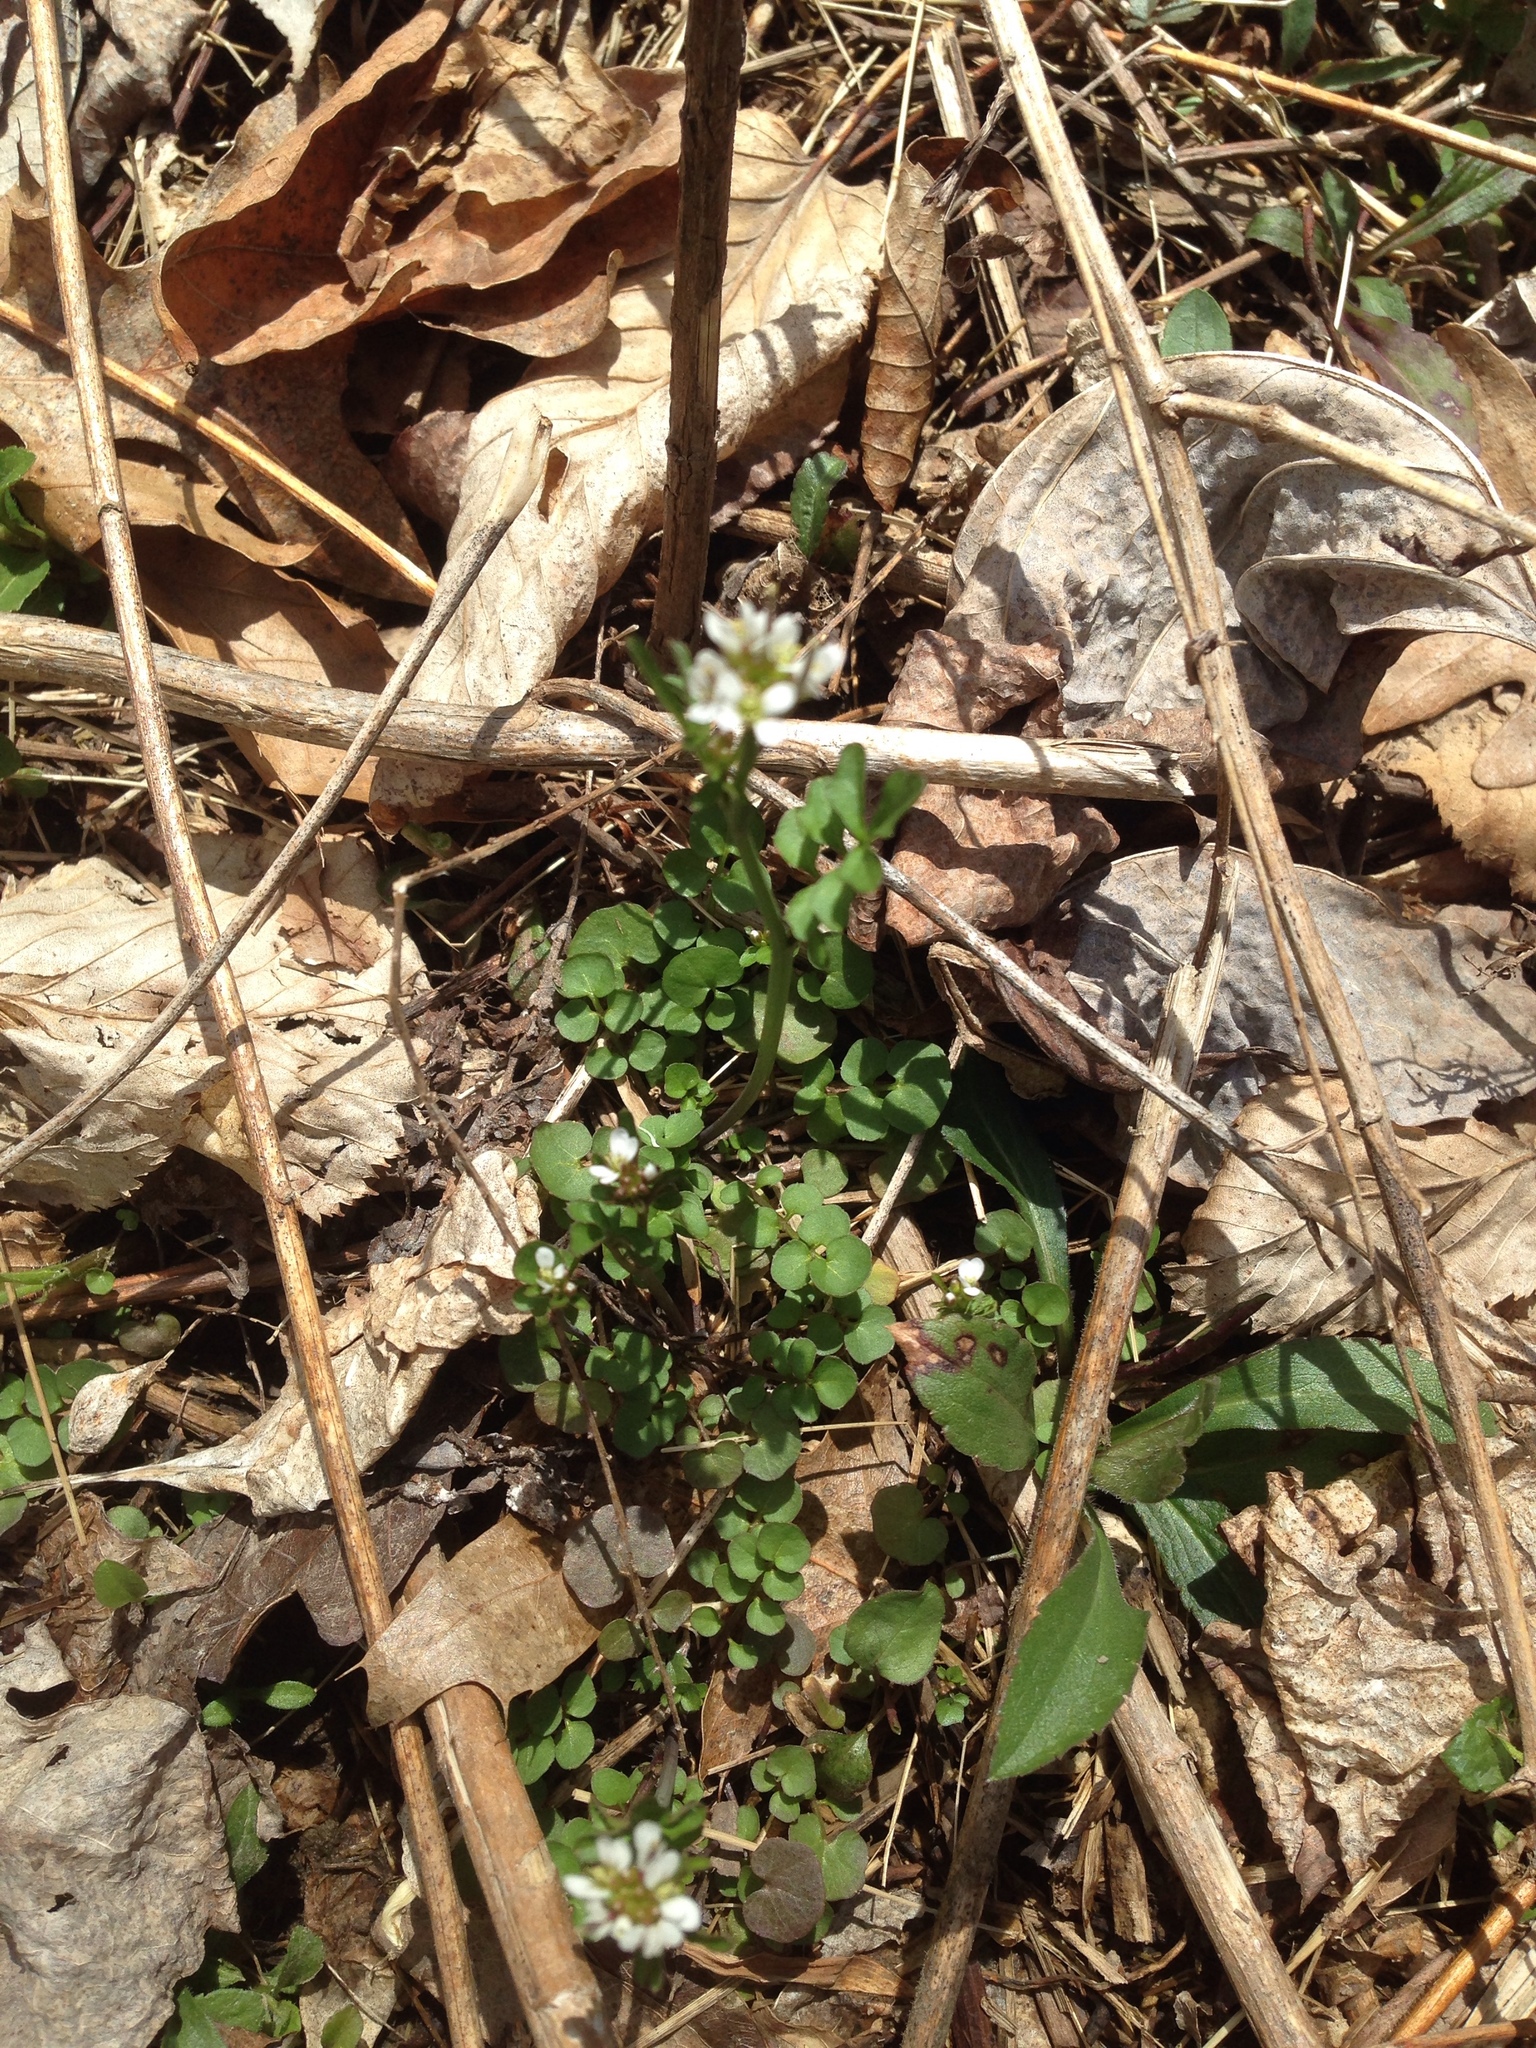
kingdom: Plantae
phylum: Tracheophyta
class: Magnoliopsida
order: Brassicales
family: Brassicaceae
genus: Cardamine
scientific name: Cardamine hirsuta
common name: Hairy bittercress
